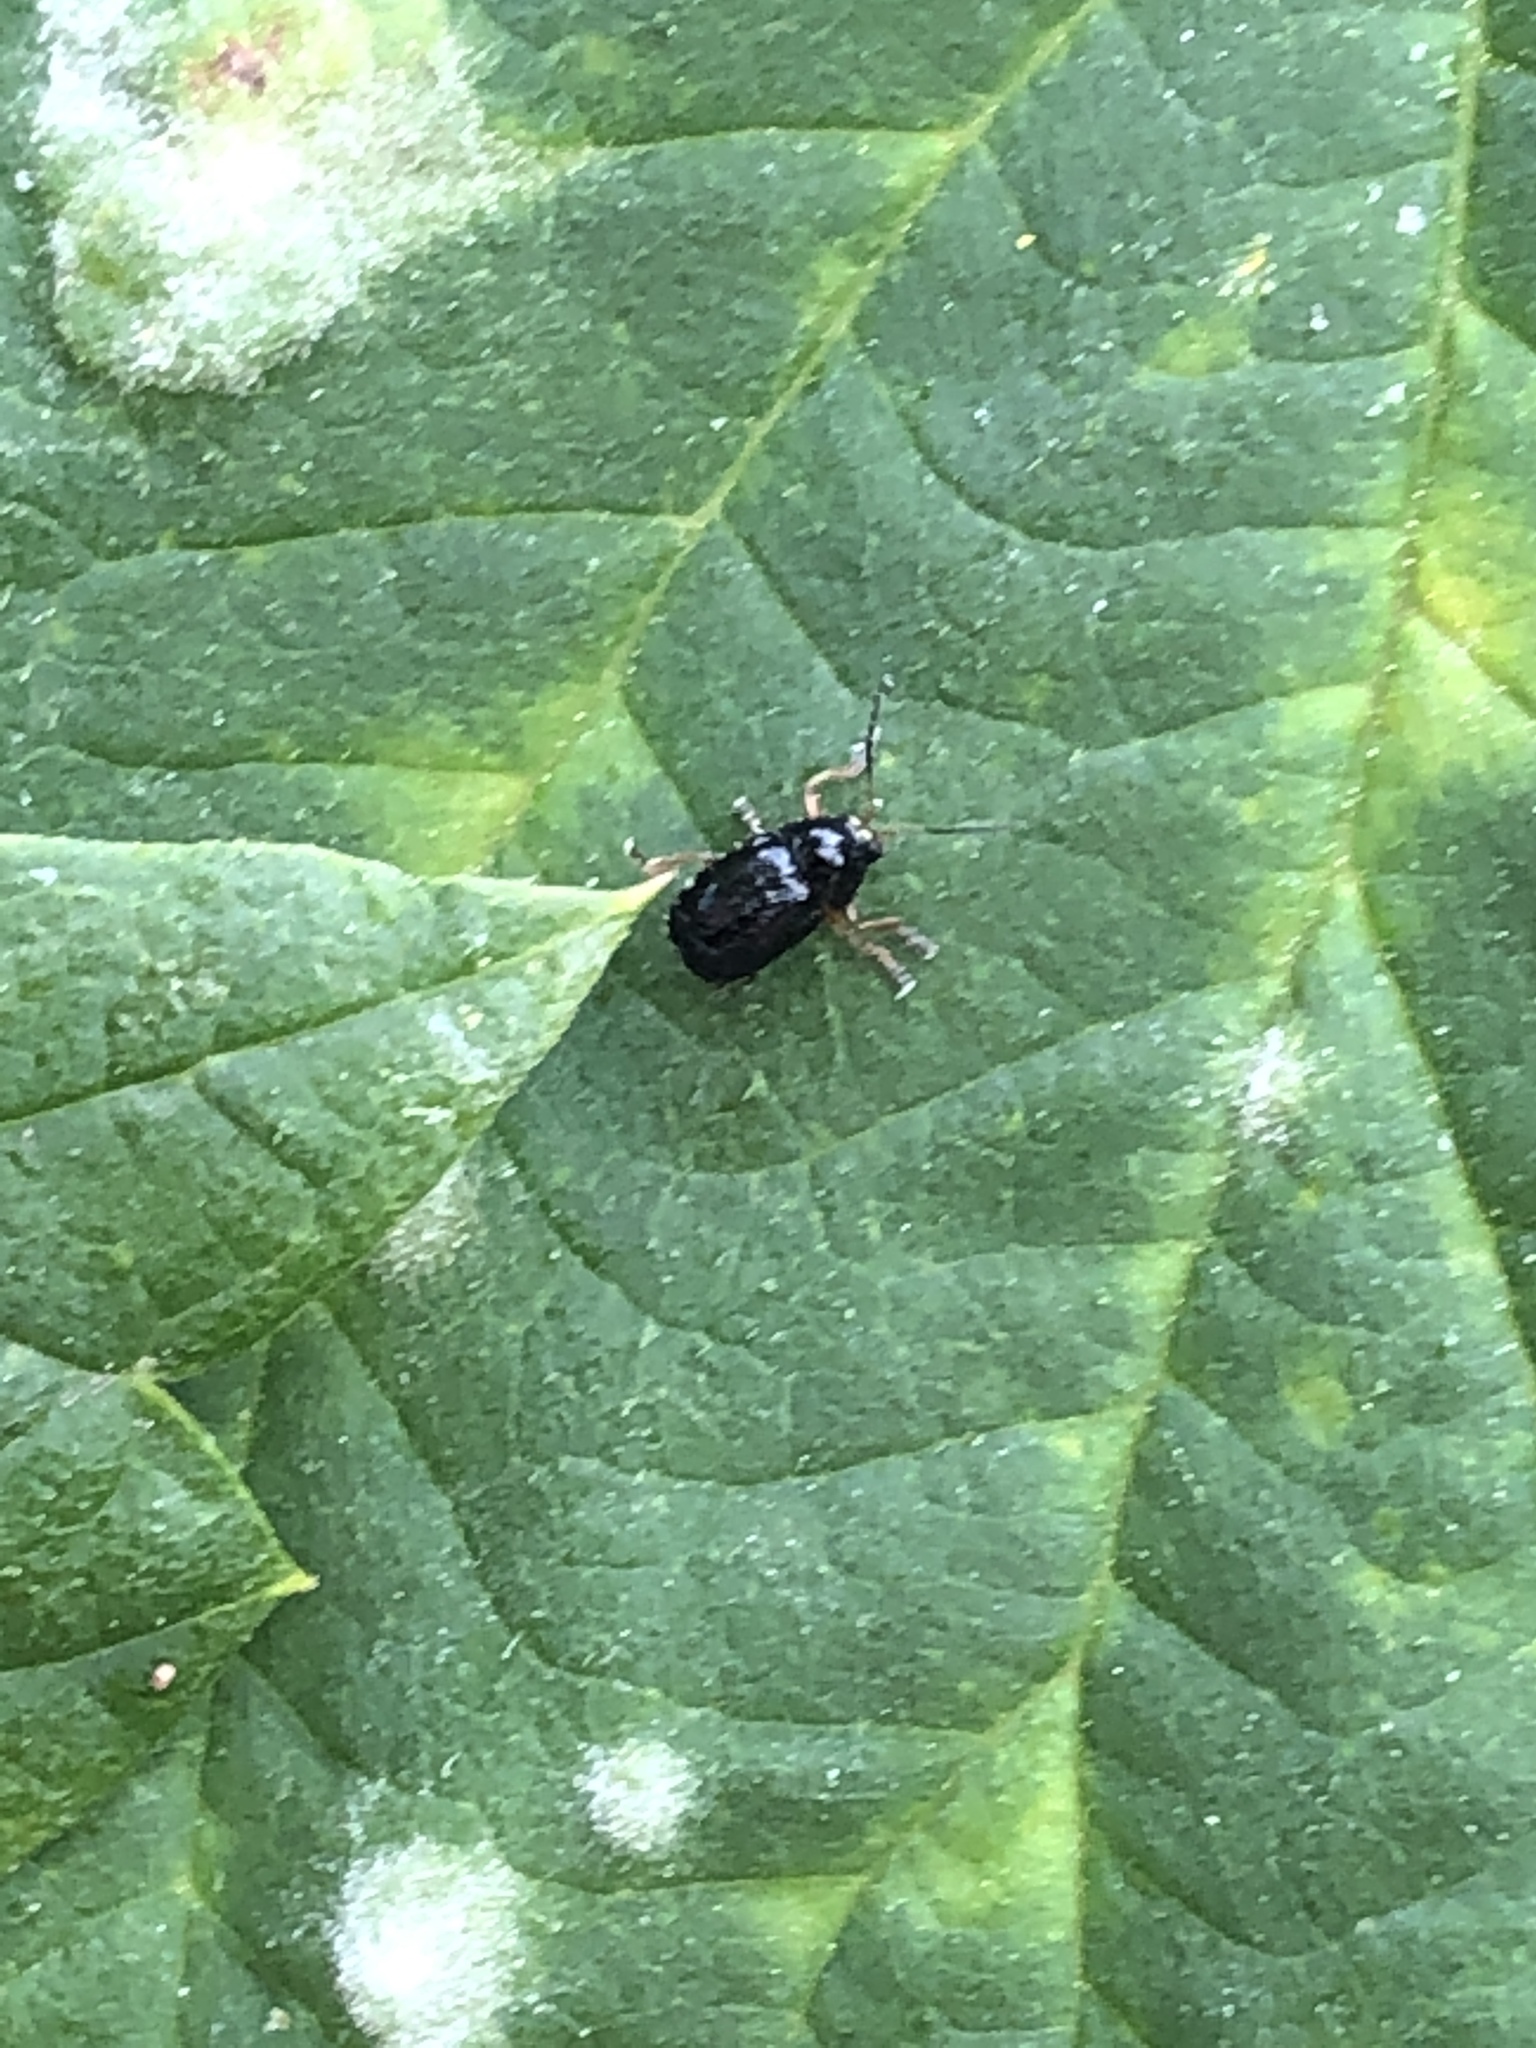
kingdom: Animalia
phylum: Arthropoda
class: Insecta
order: Coleoptera
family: Chrysomelidae
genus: Cryptocephalus
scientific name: Cryptocephalus ocellatus
